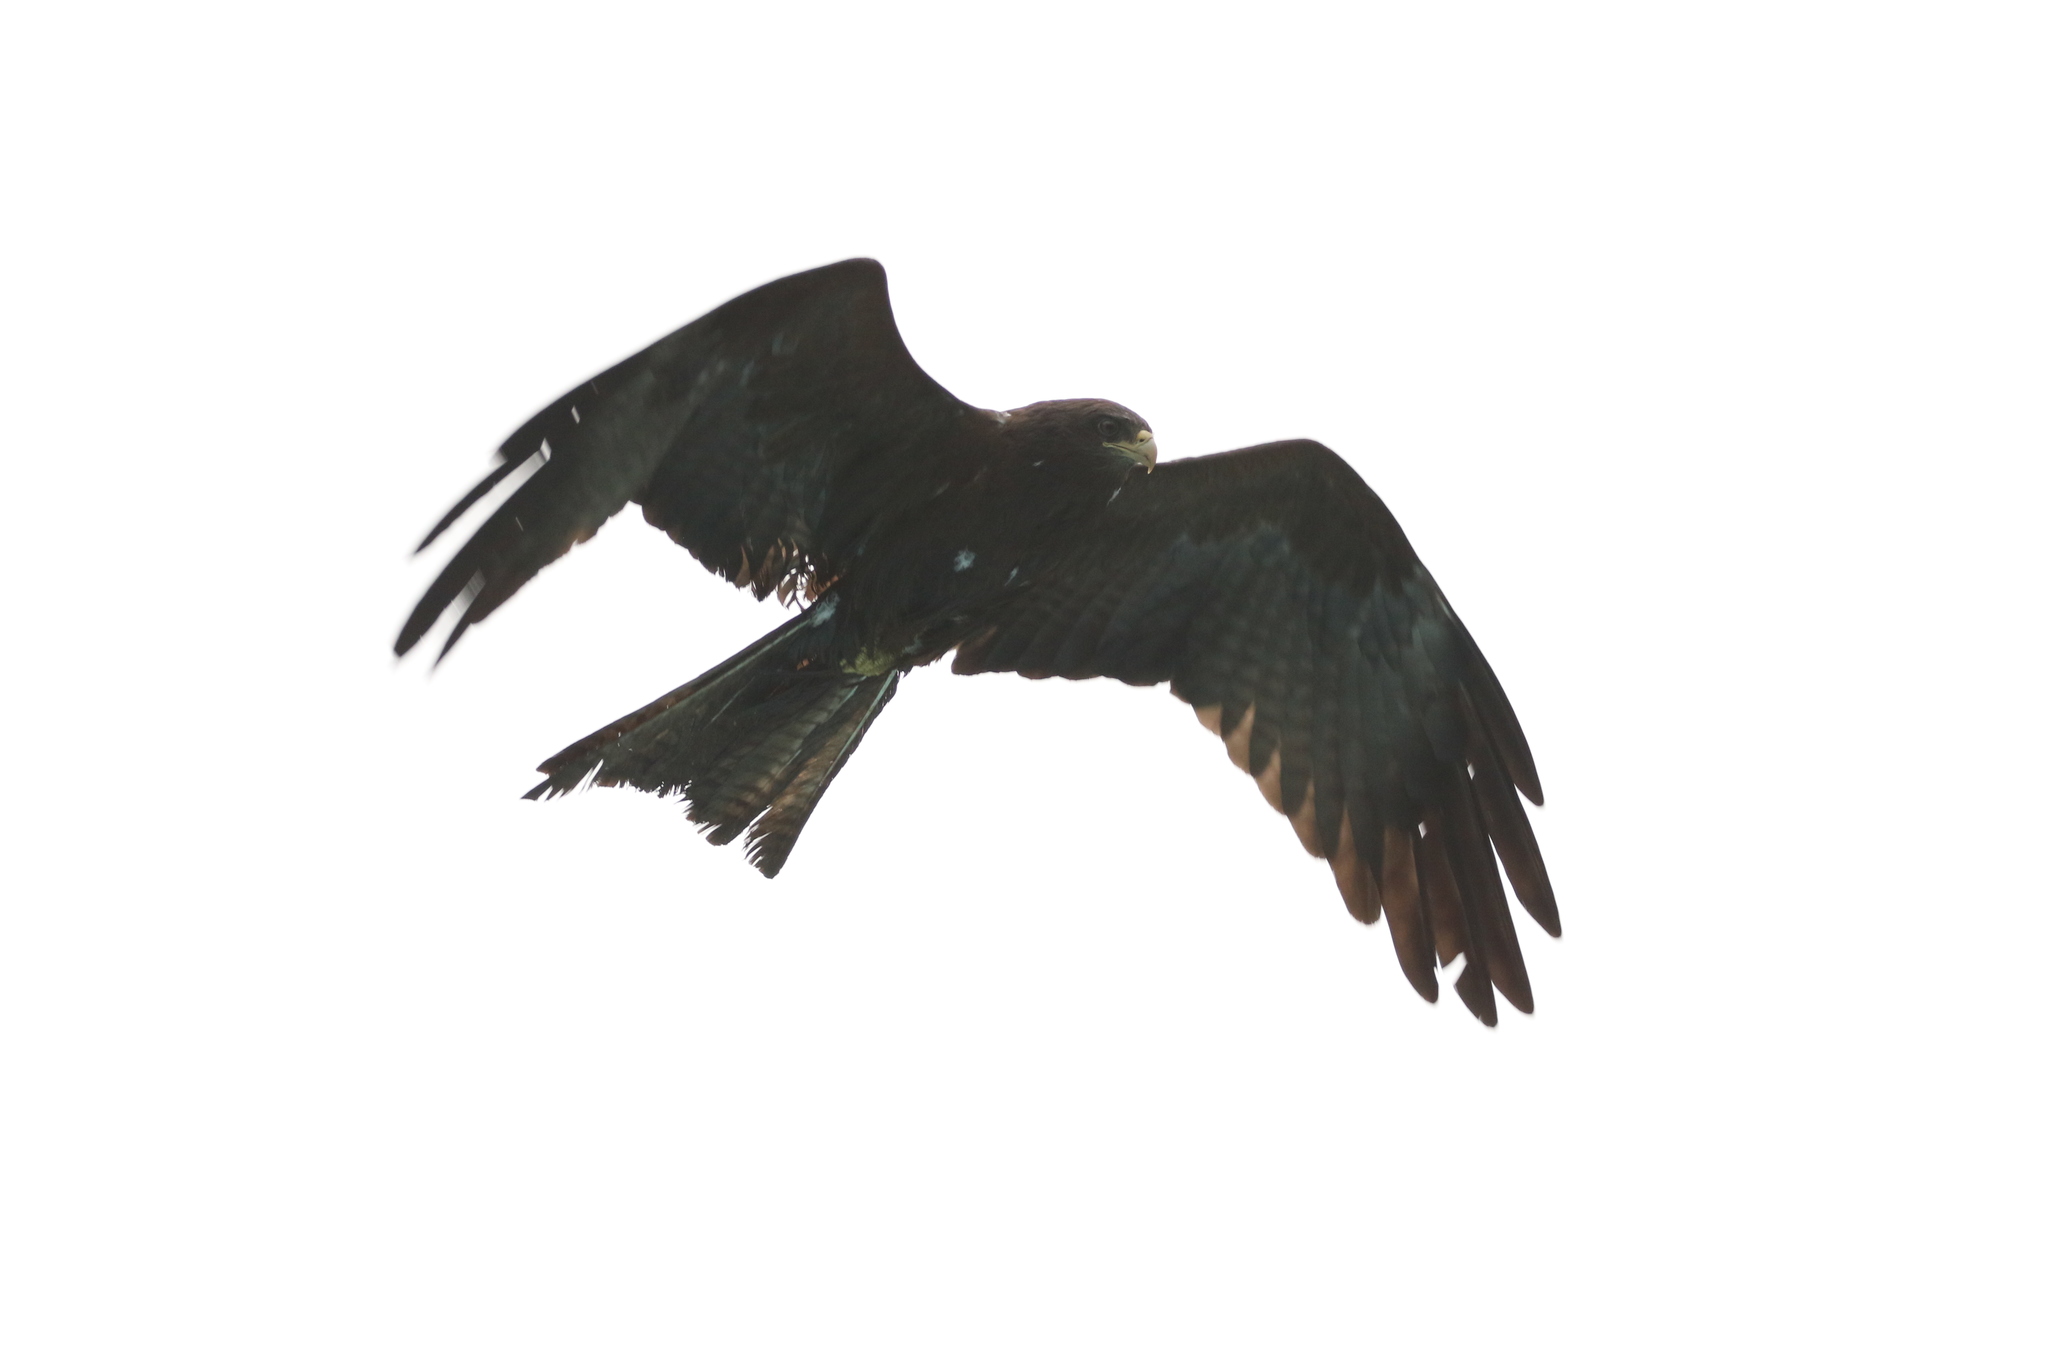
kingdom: Animalia
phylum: Chordata
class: Aves
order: Accipitriformes
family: Accipitridae
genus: Milvus
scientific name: Milvus migrans
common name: Black kite
